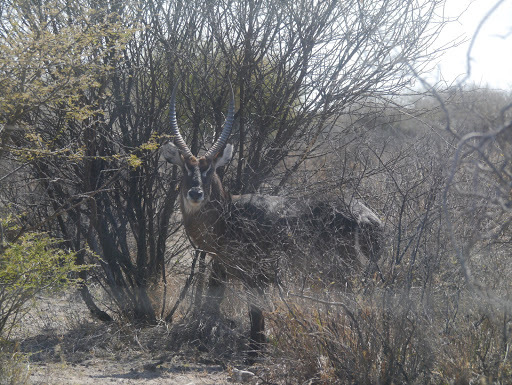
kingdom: Animalia
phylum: Chordata
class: Mammalia
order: Artiodactyla
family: Bovidae
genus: Kobus
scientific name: Kobus ellipsiprymnus
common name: Waterbuck
